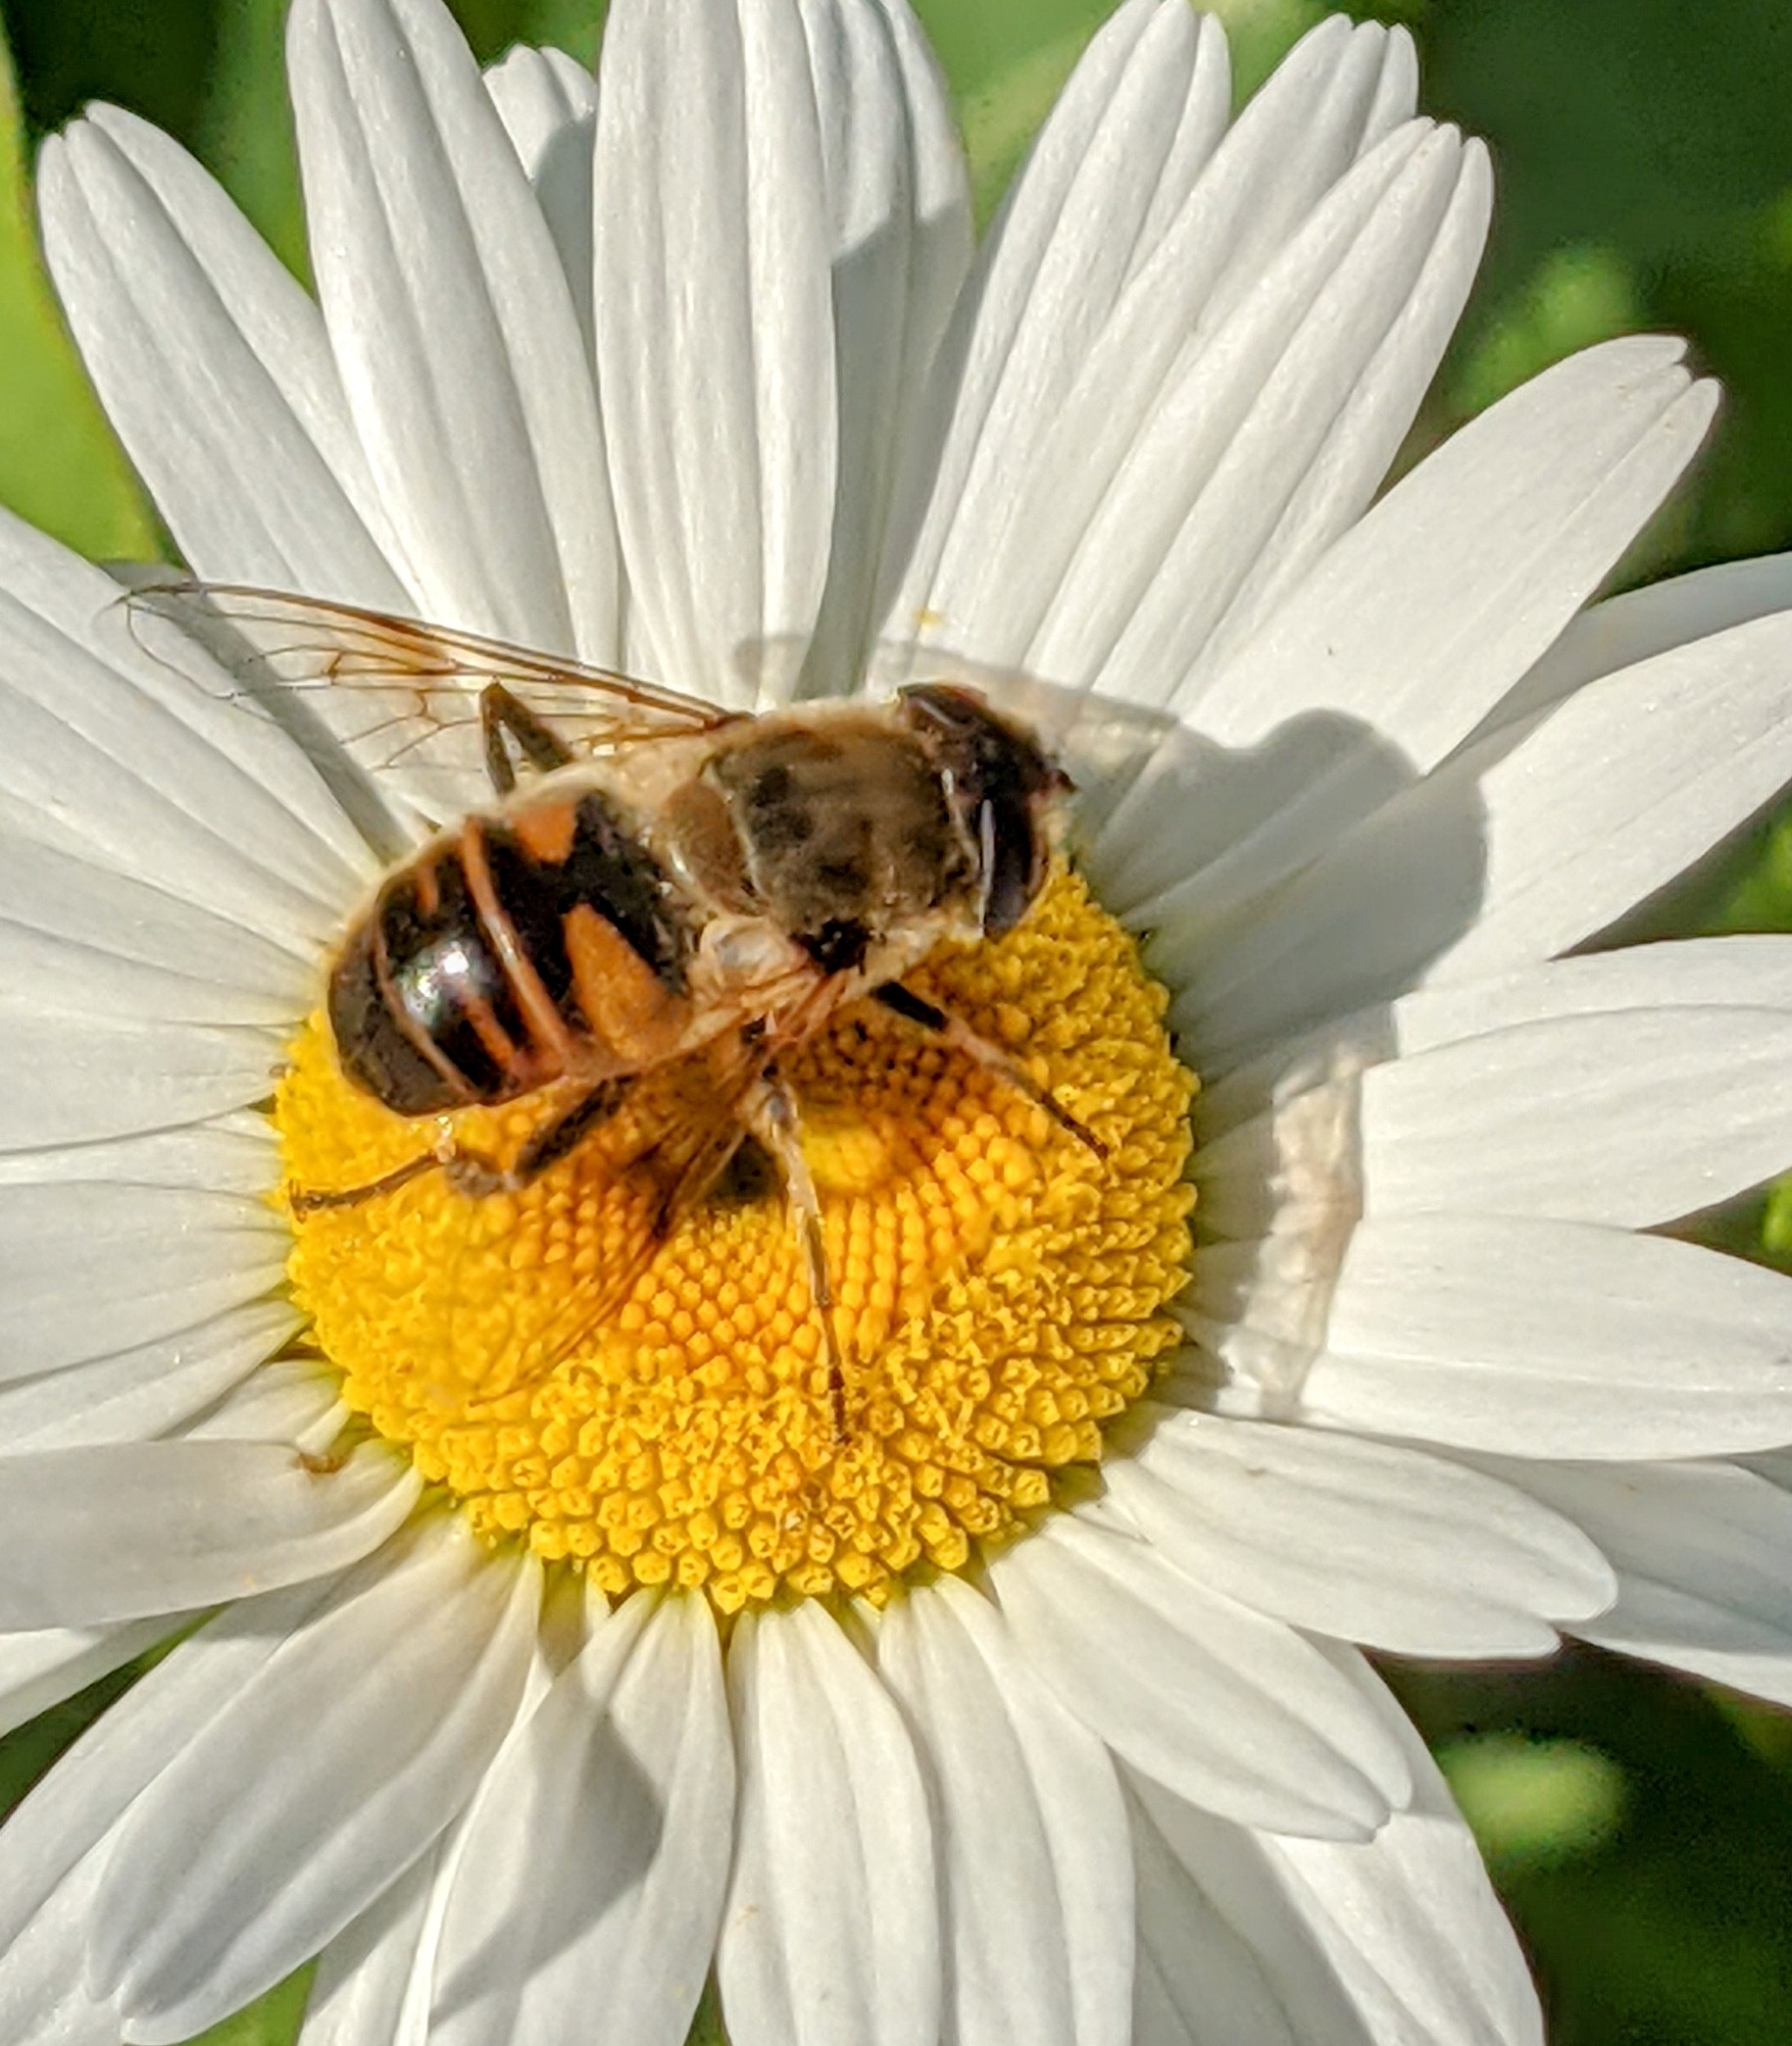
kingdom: Animalia
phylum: Arthropoda
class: Insecta
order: Diptera
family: Syrphidae
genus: Eristalis
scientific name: Eristalis tenax
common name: Drone fly
